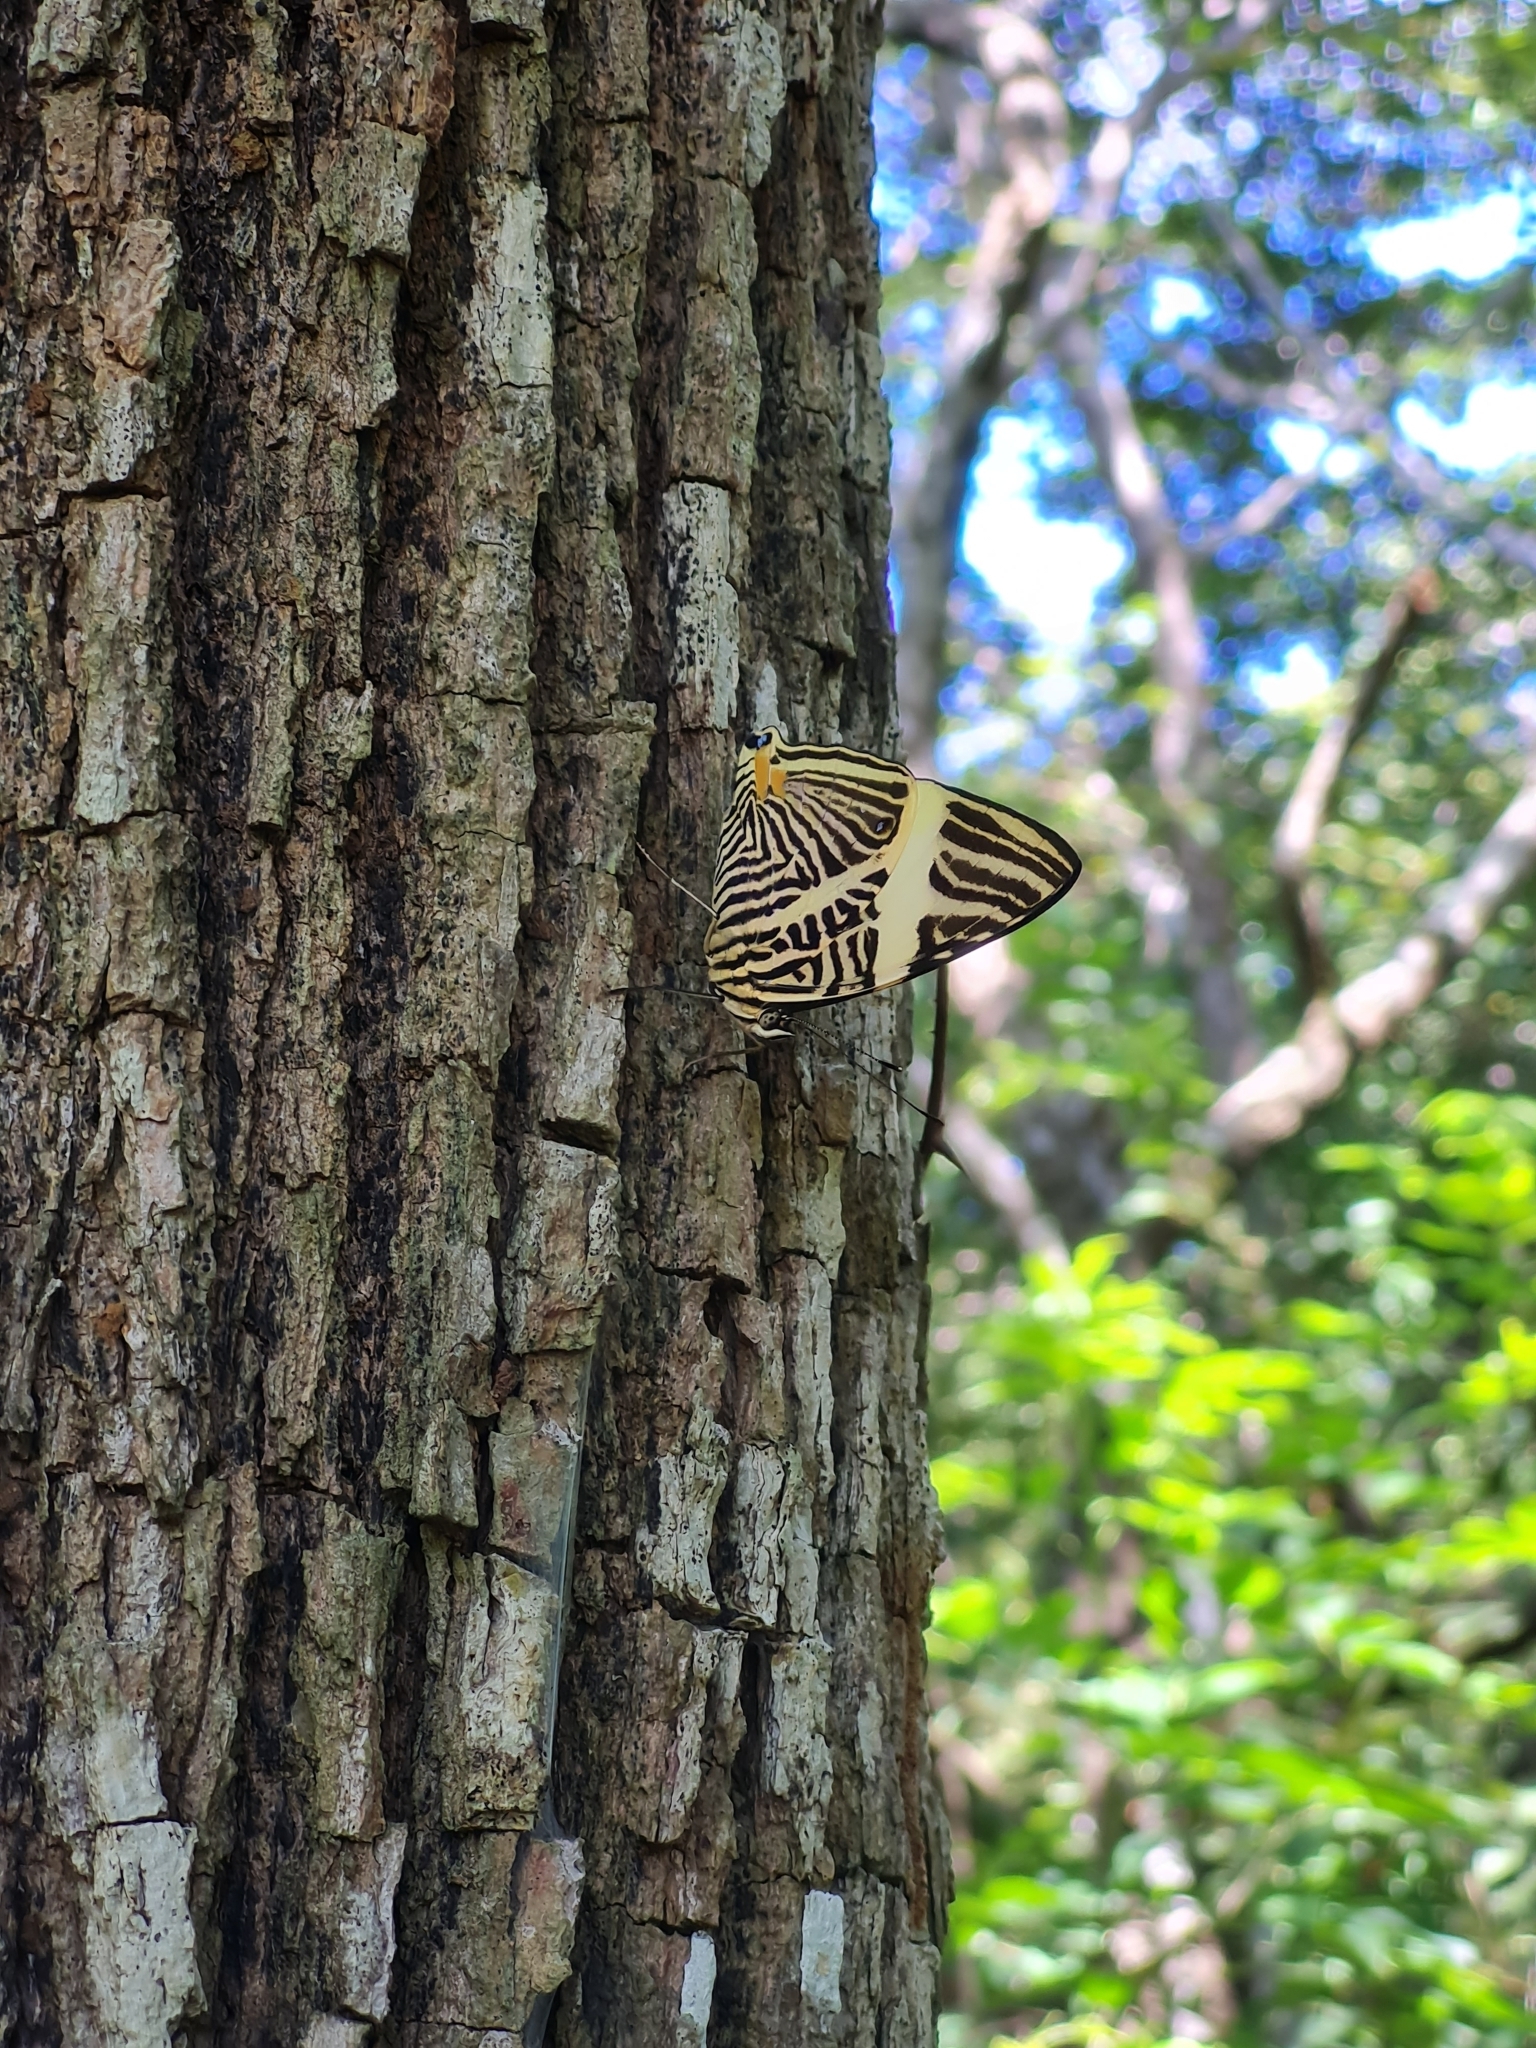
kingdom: Animalia
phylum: Arthropoda
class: Insecta
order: Lepidoptera
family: Nymphalidae
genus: Colobura
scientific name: Colobura dirce
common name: Dirce beauty
